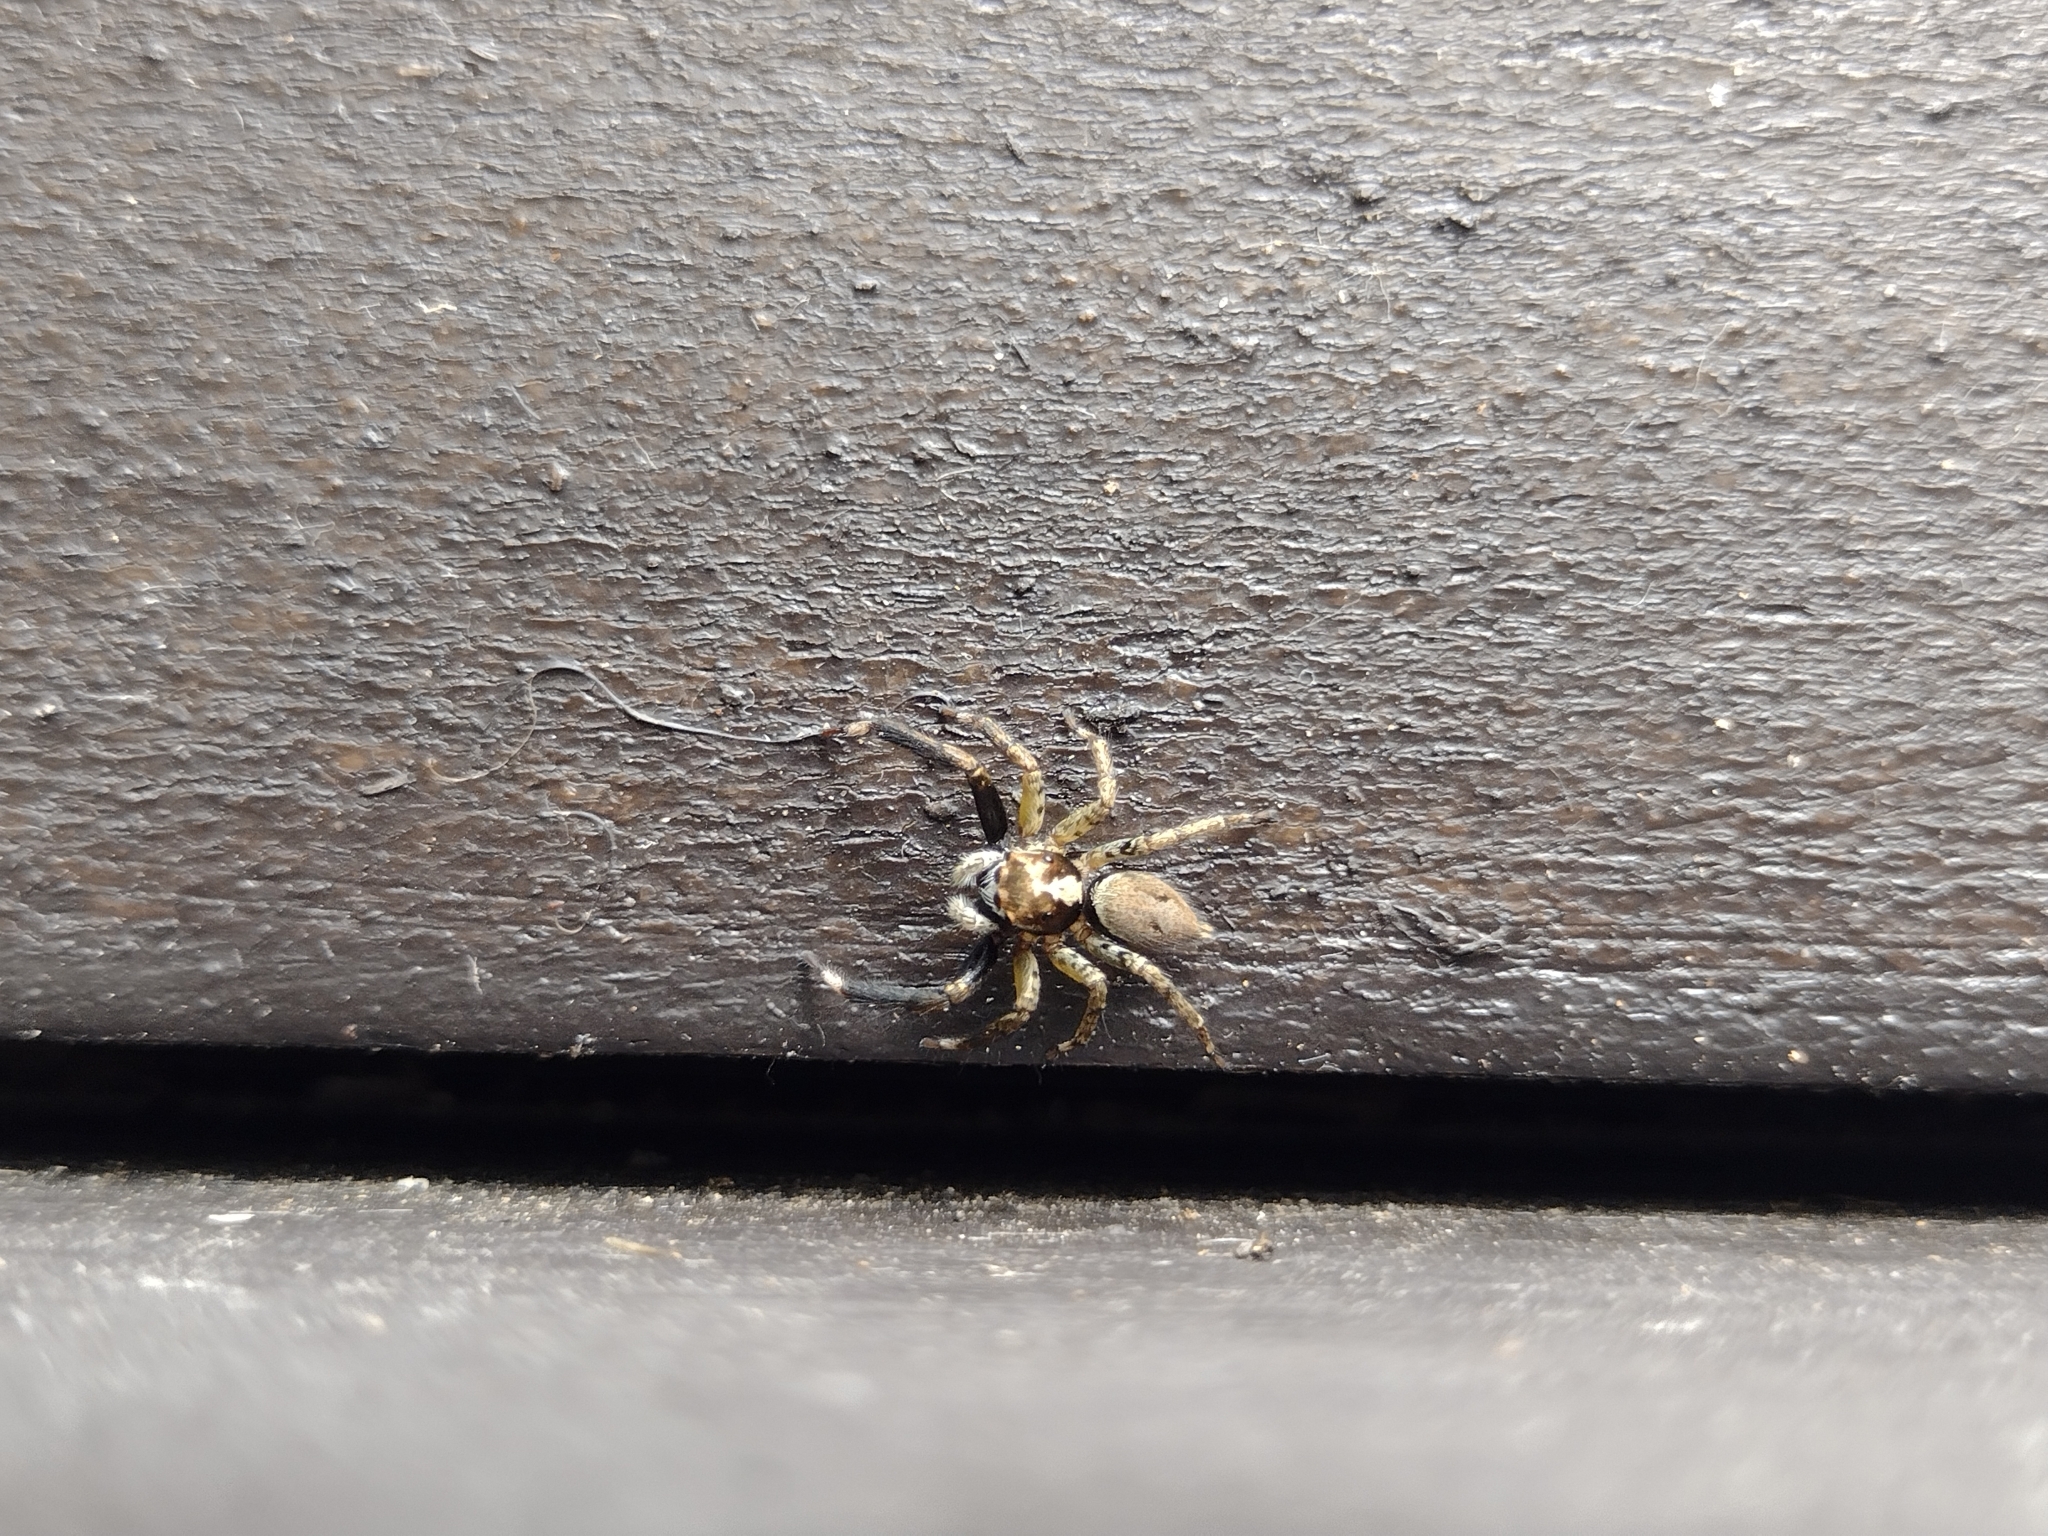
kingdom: Animalia
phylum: Arthropoda
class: Arachnida
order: Araneae
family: Salticidae
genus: Asaphobelis
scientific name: Asaphobelis physonychus
